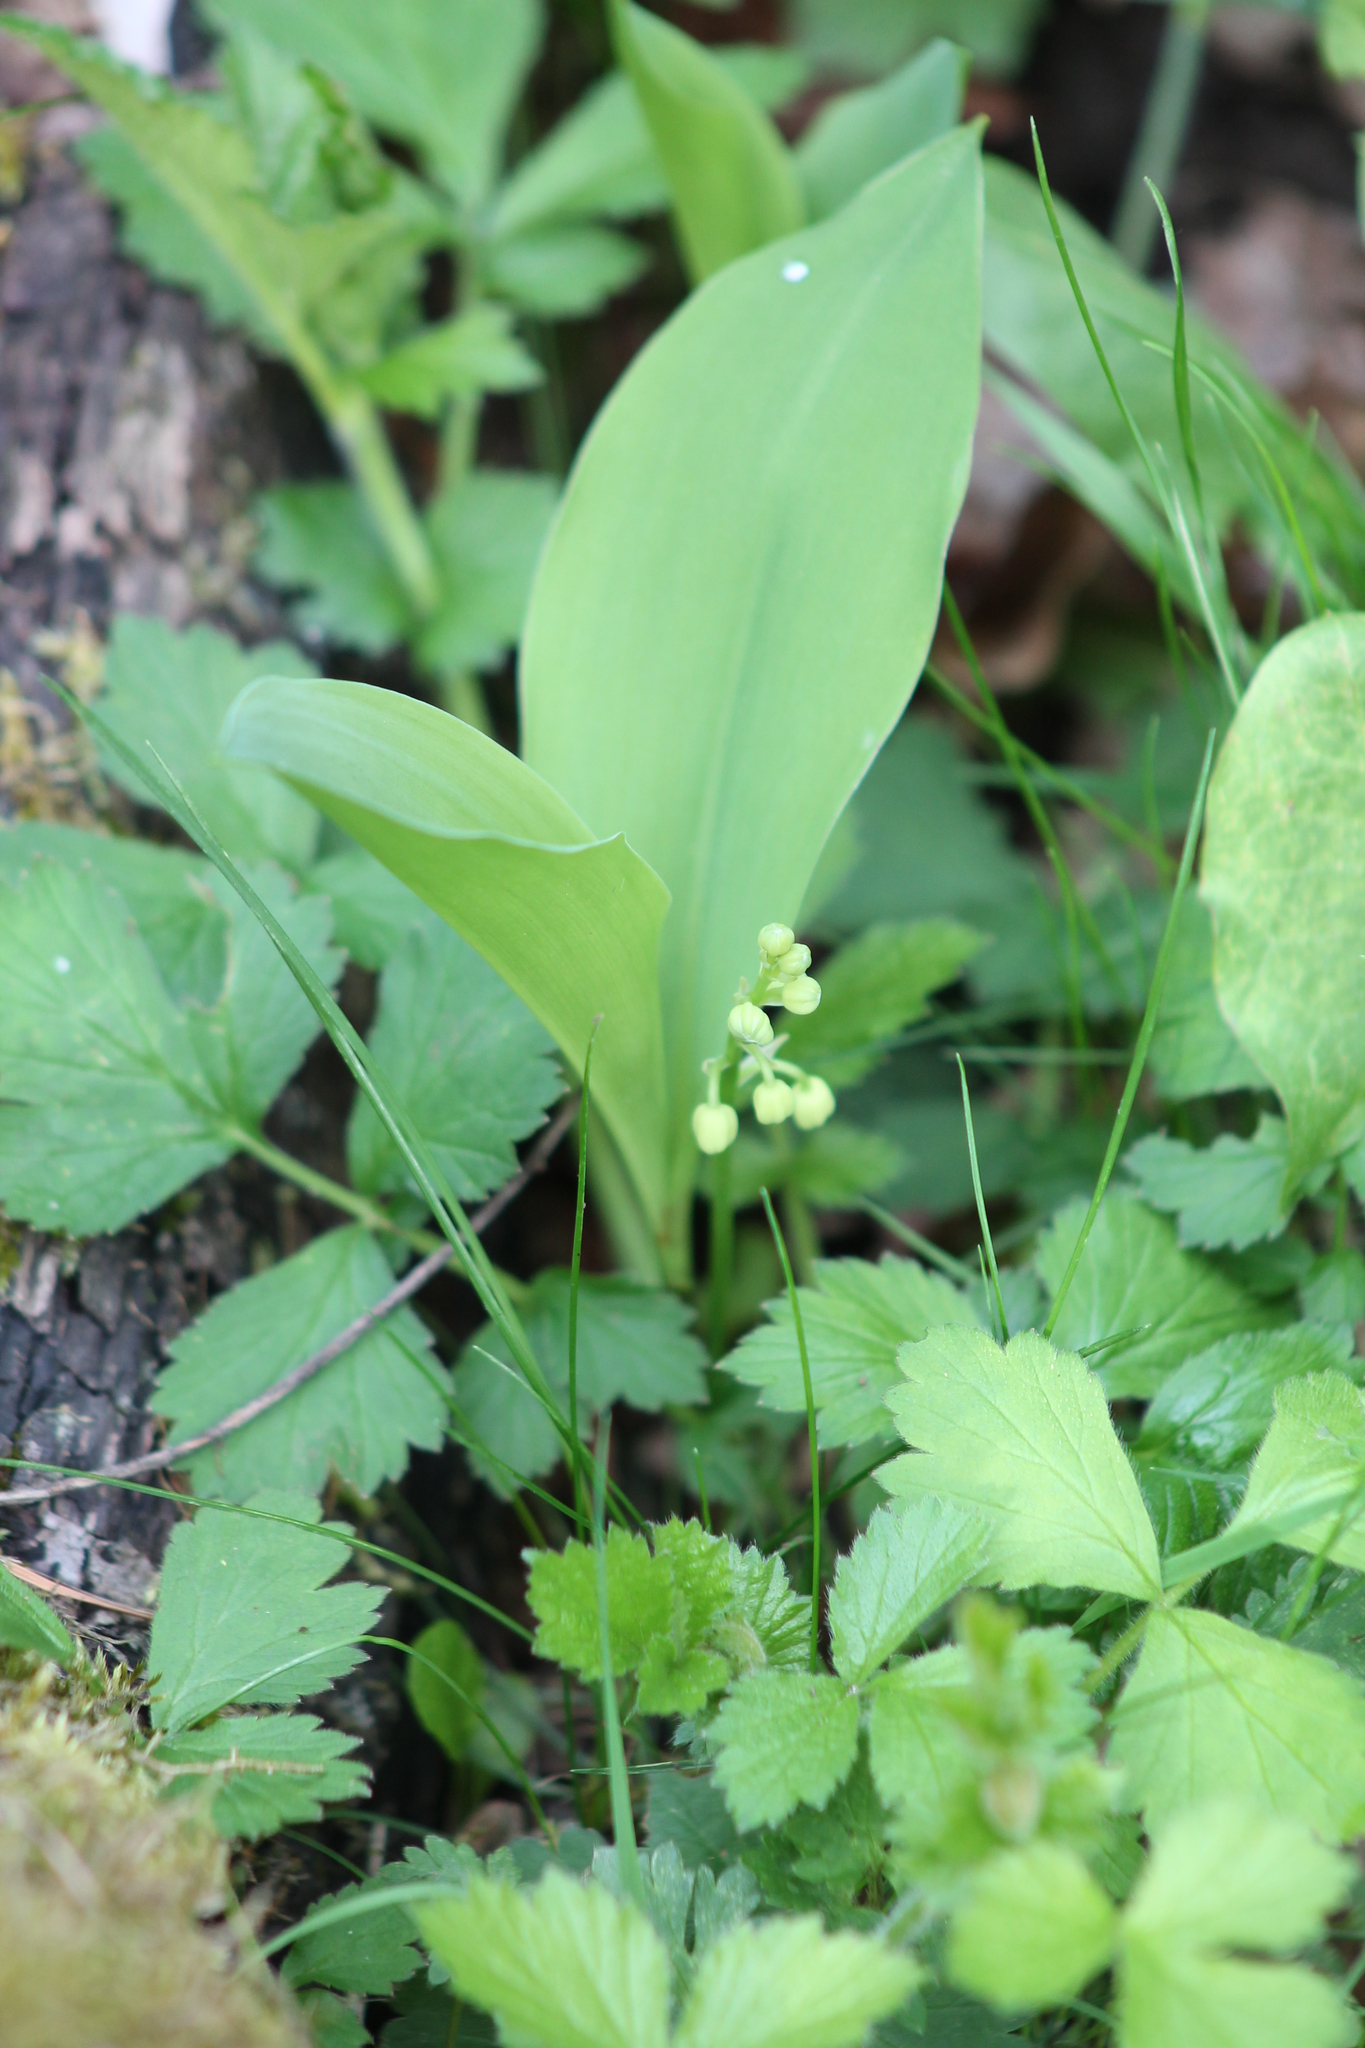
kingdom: Plantae
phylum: Tracheophyta
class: Liliopsida
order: Asparagales
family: Asparagaceae
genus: Convallaria
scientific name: Convallaria majalis
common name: Lily-of-the-valley
